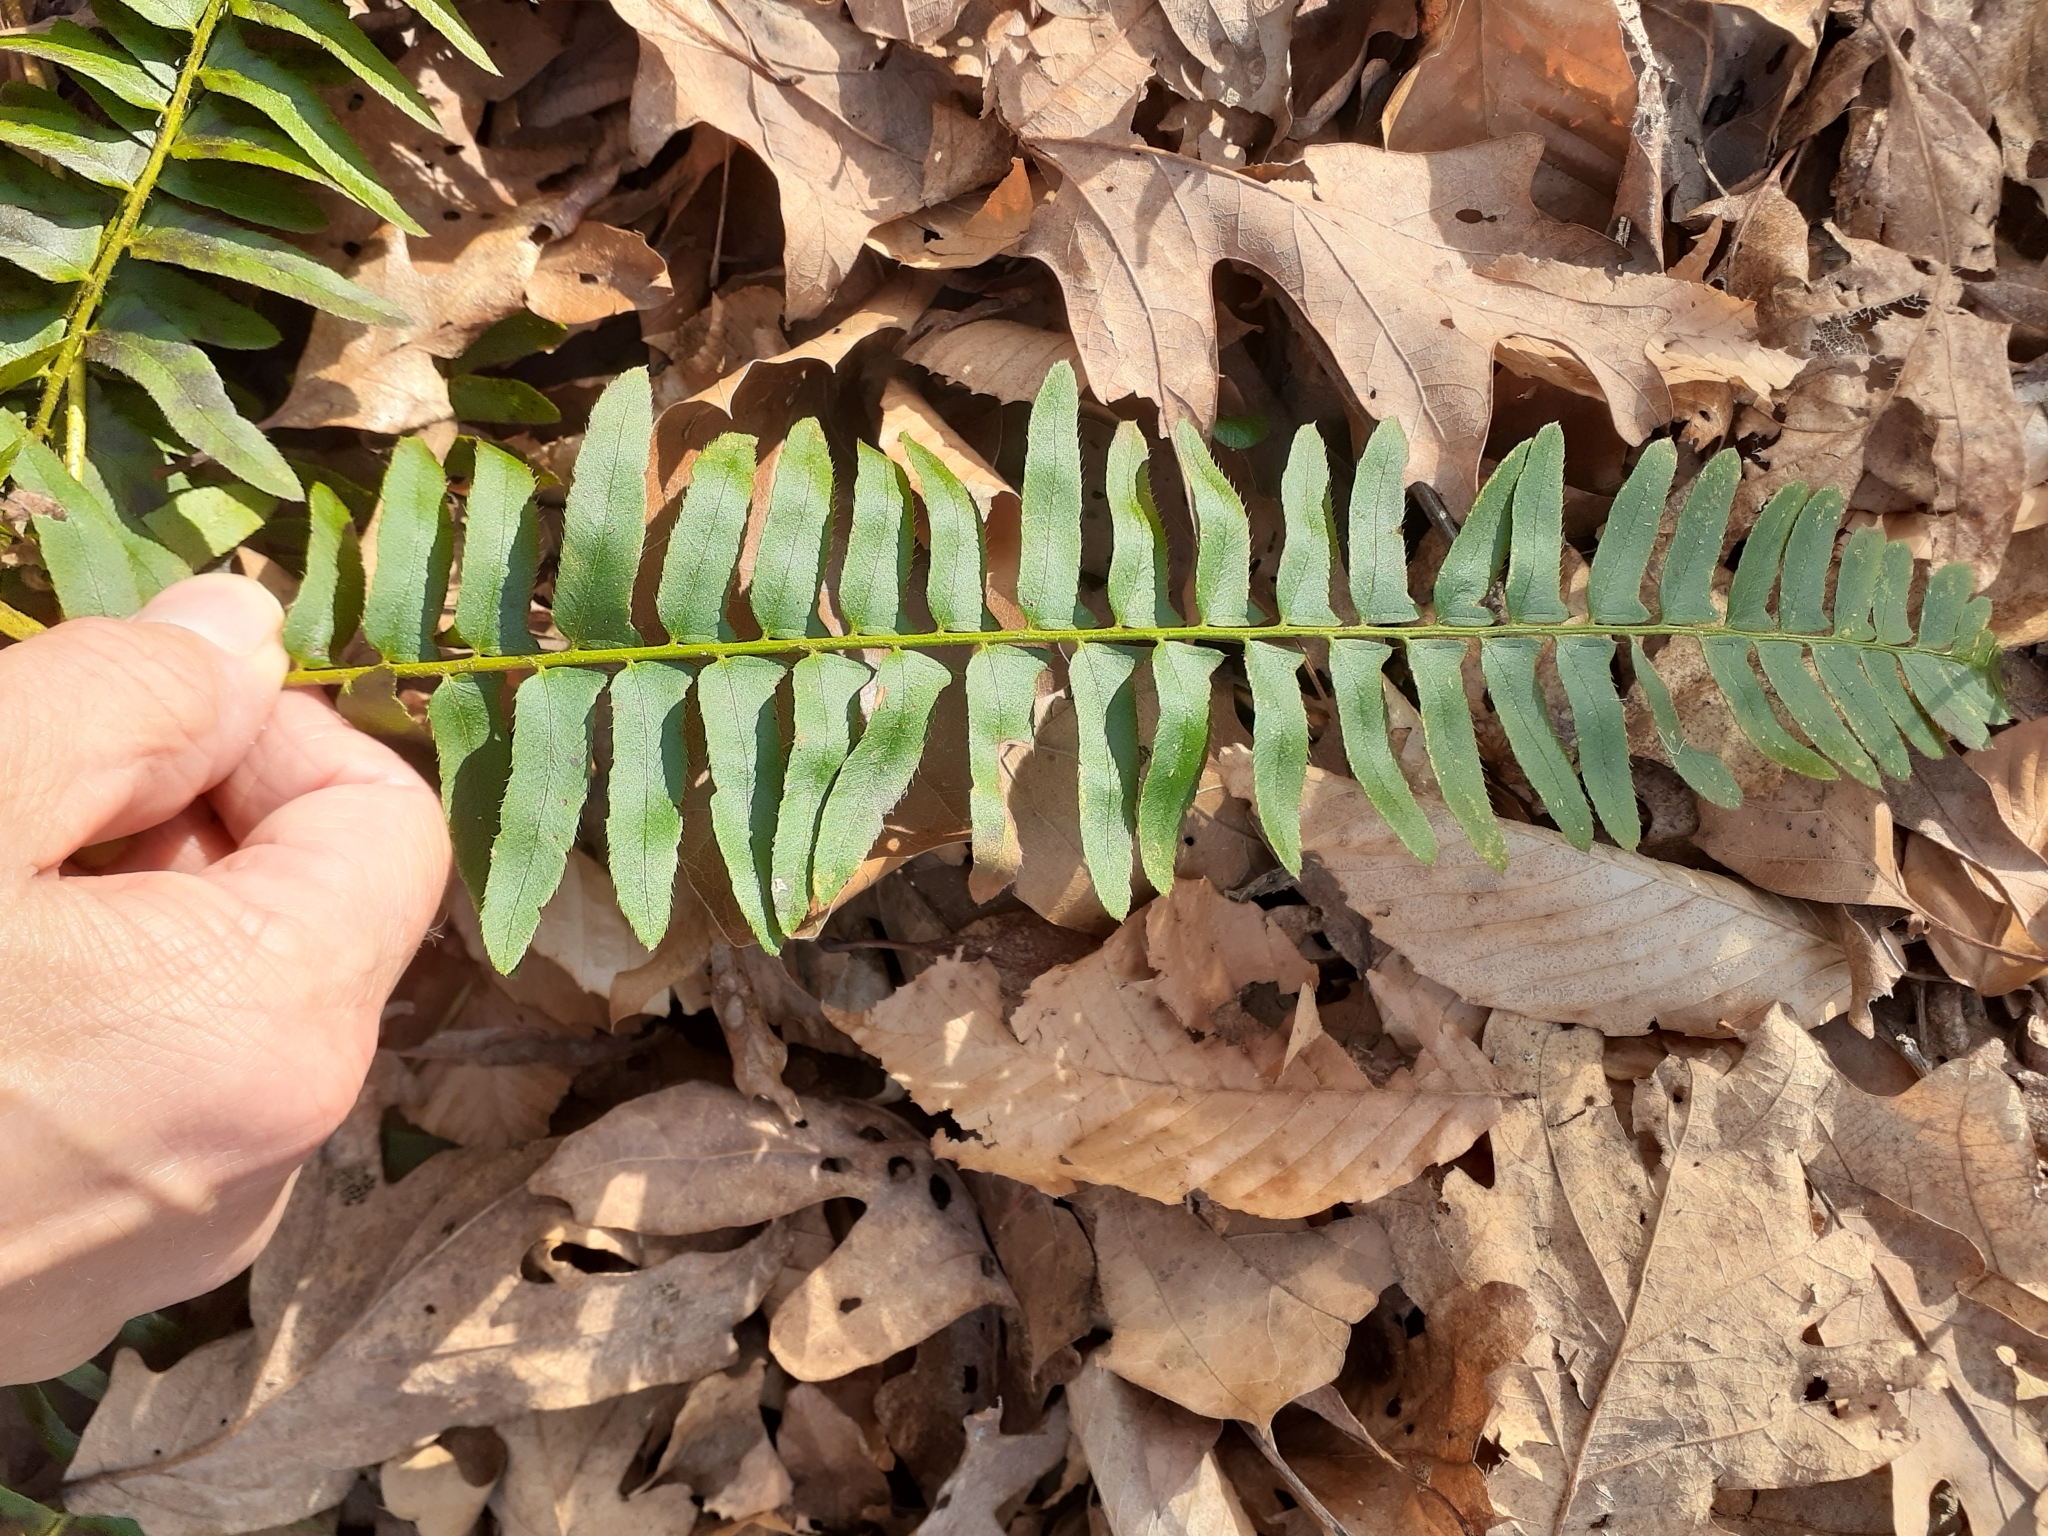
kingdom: Plantae
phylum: Tracheophyta
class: Polypodiopsida
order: Polypodiales
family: Dryopteridaceae
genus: Polystichum
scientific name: Polystichum acrostichoides
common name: Christmas fern
